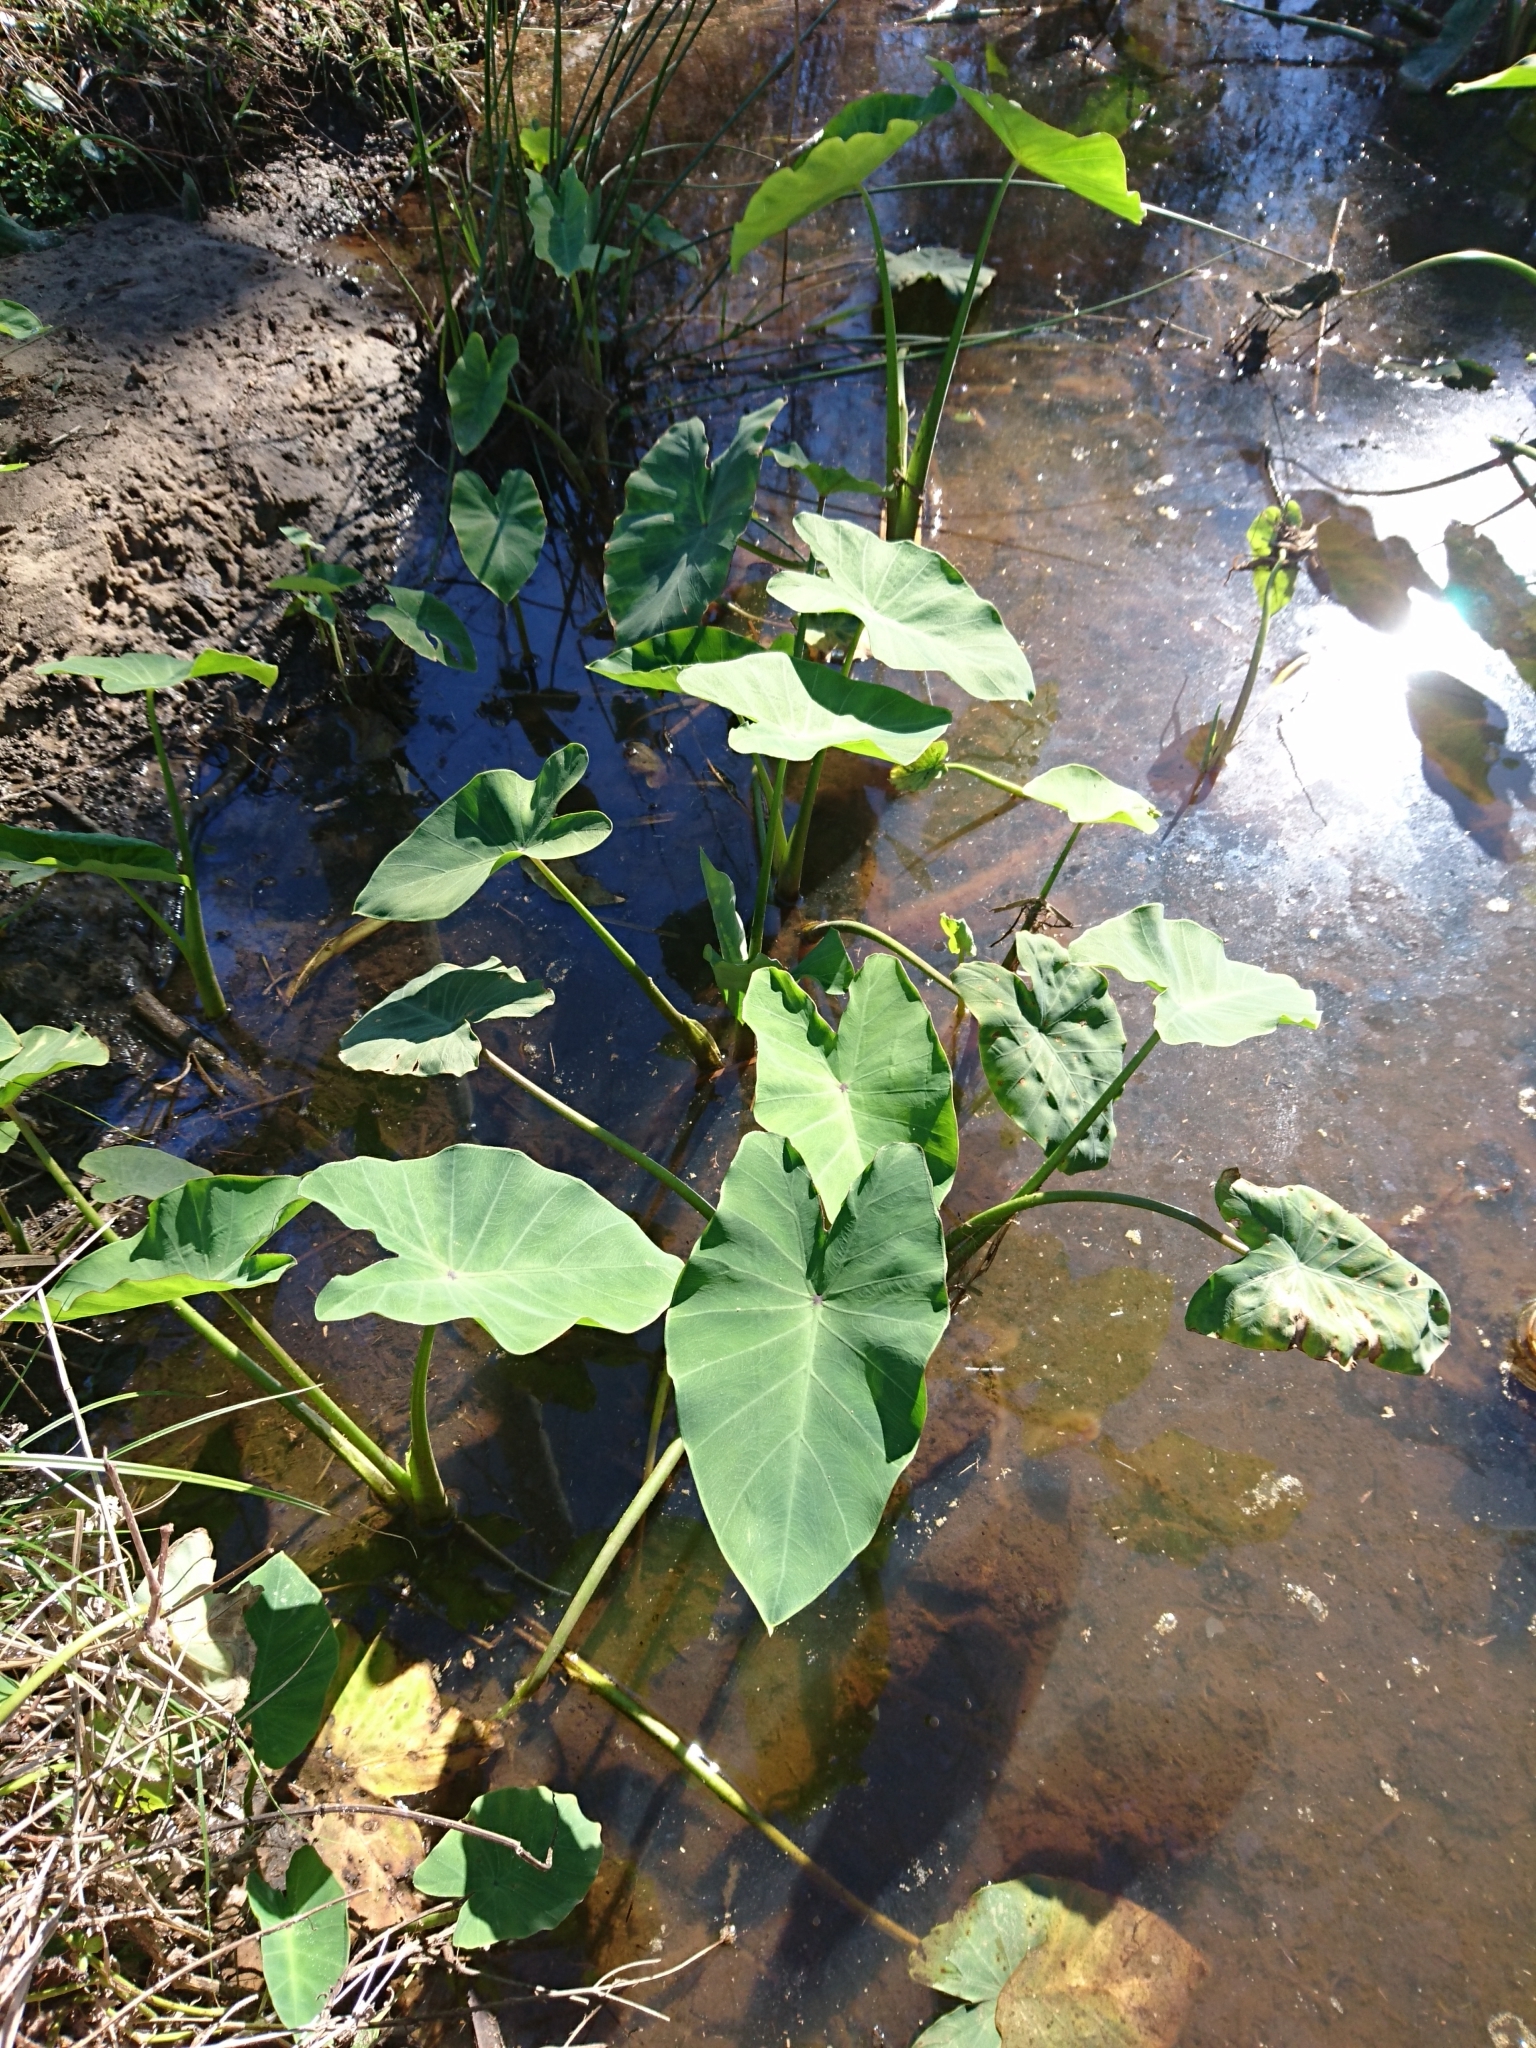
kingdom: Plantae
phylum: Tracheophyta
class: Liliopsida
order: Alismatales
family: Araceae
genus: Colocasia
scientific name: Colocasia esculenta
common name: Taro
